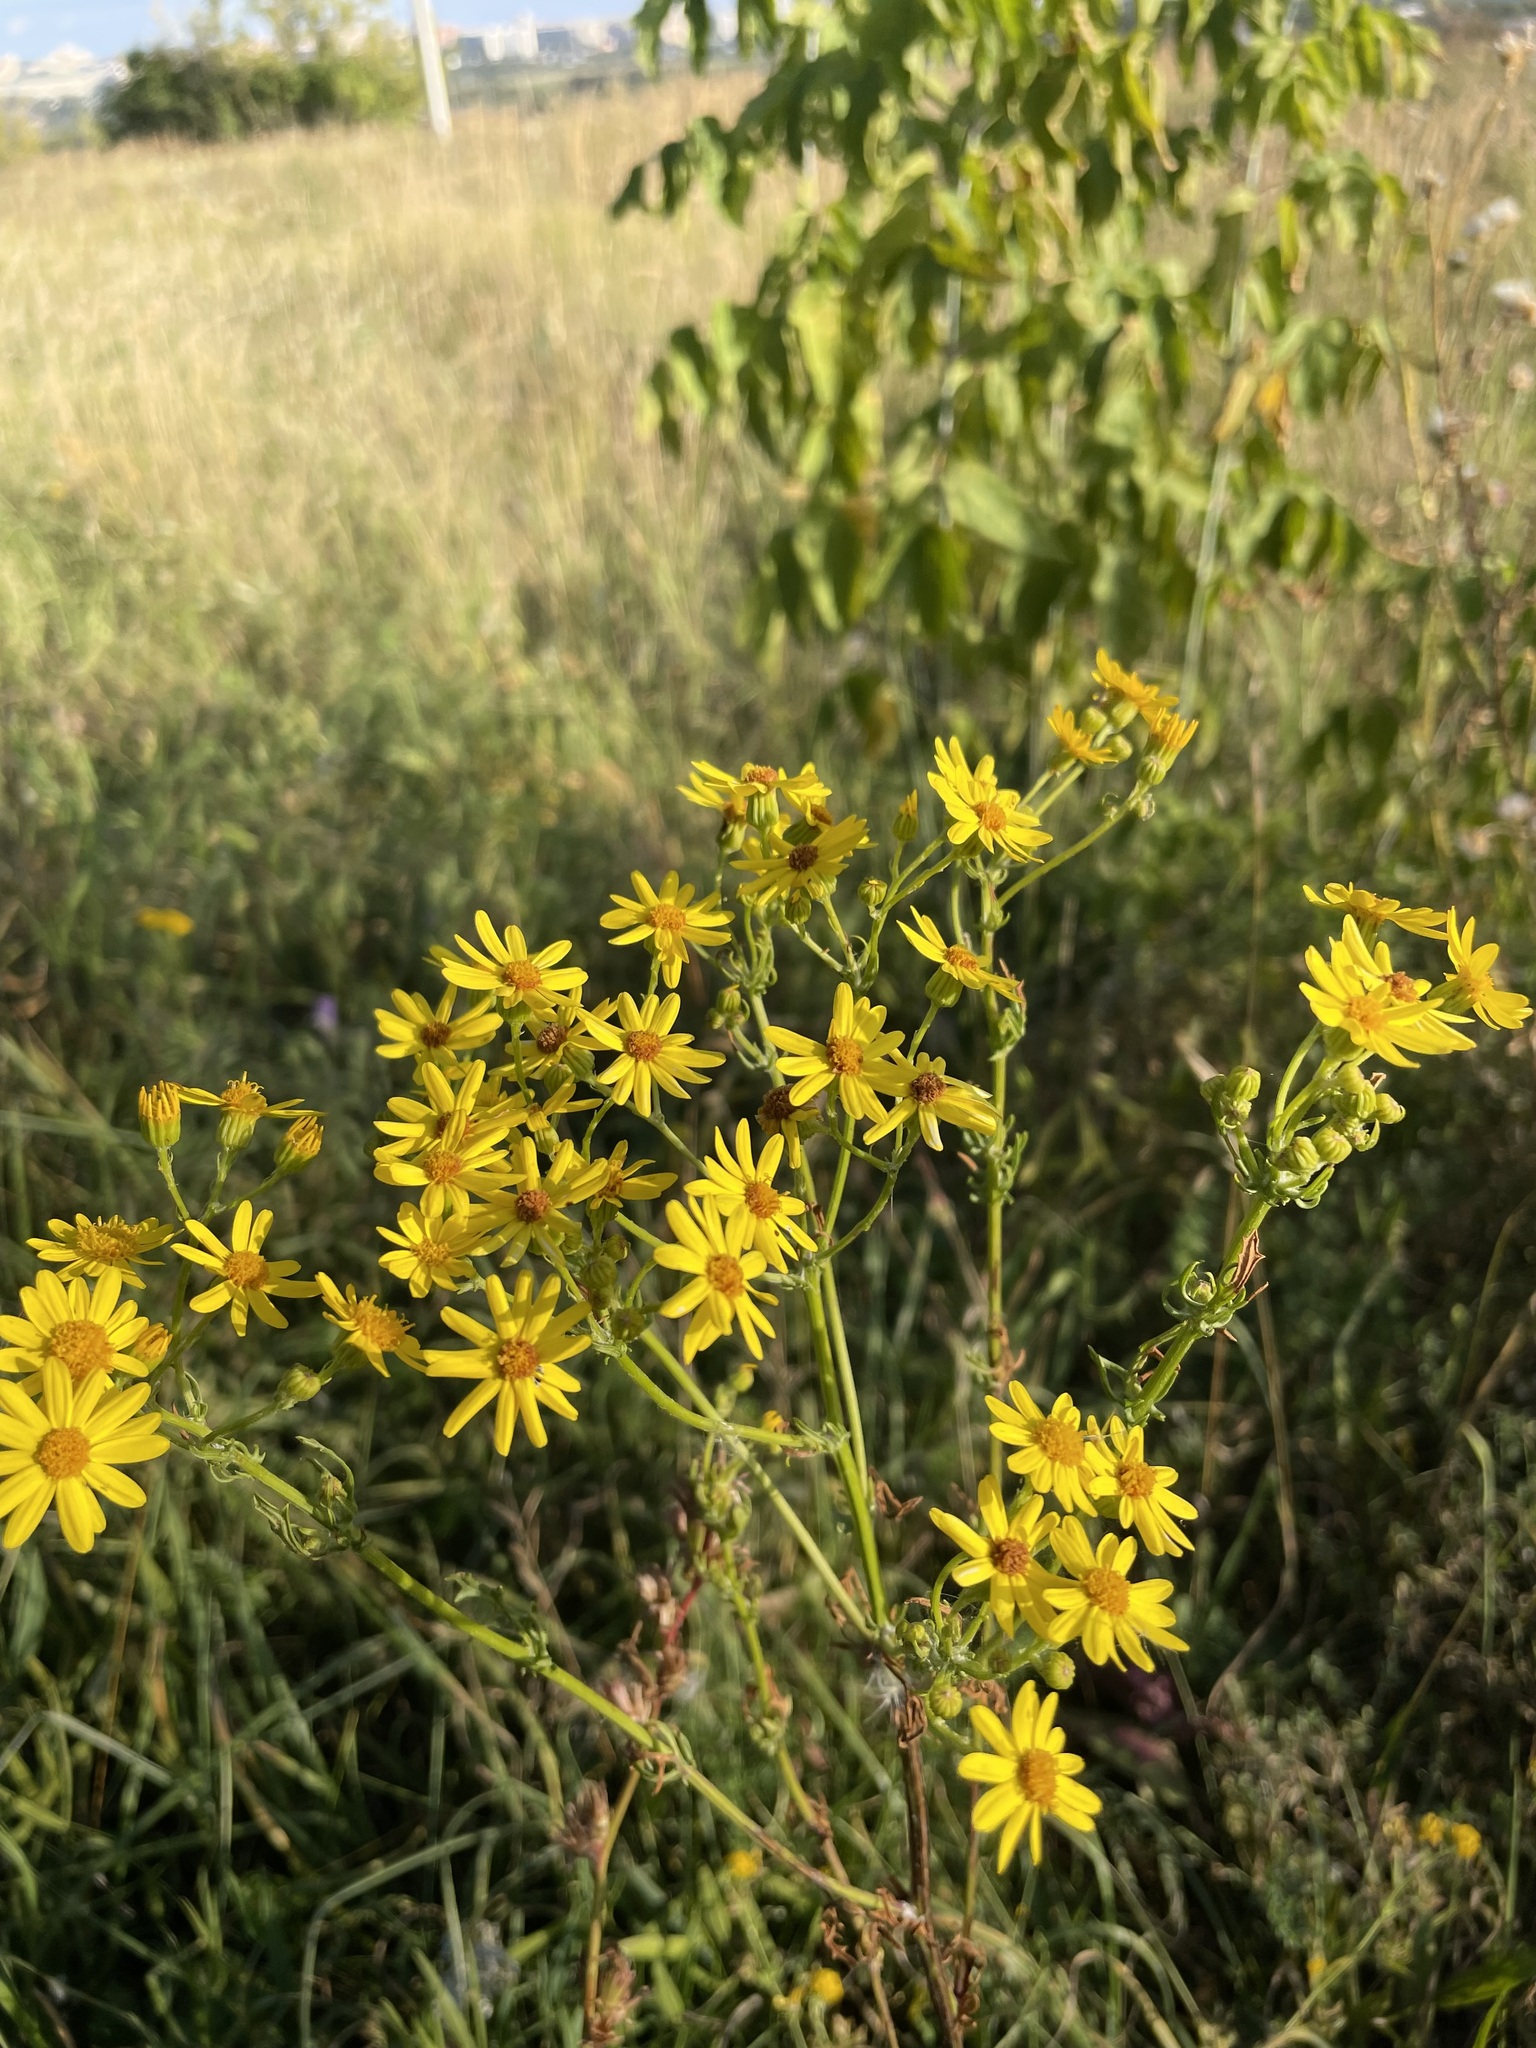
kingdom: Plantae
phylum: Tracheophyta
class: Magnoliopsida
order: Asterales
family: Asteraceae
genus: Jacobaea
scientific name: Jacobaea vulgaris
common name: Stinking willie
